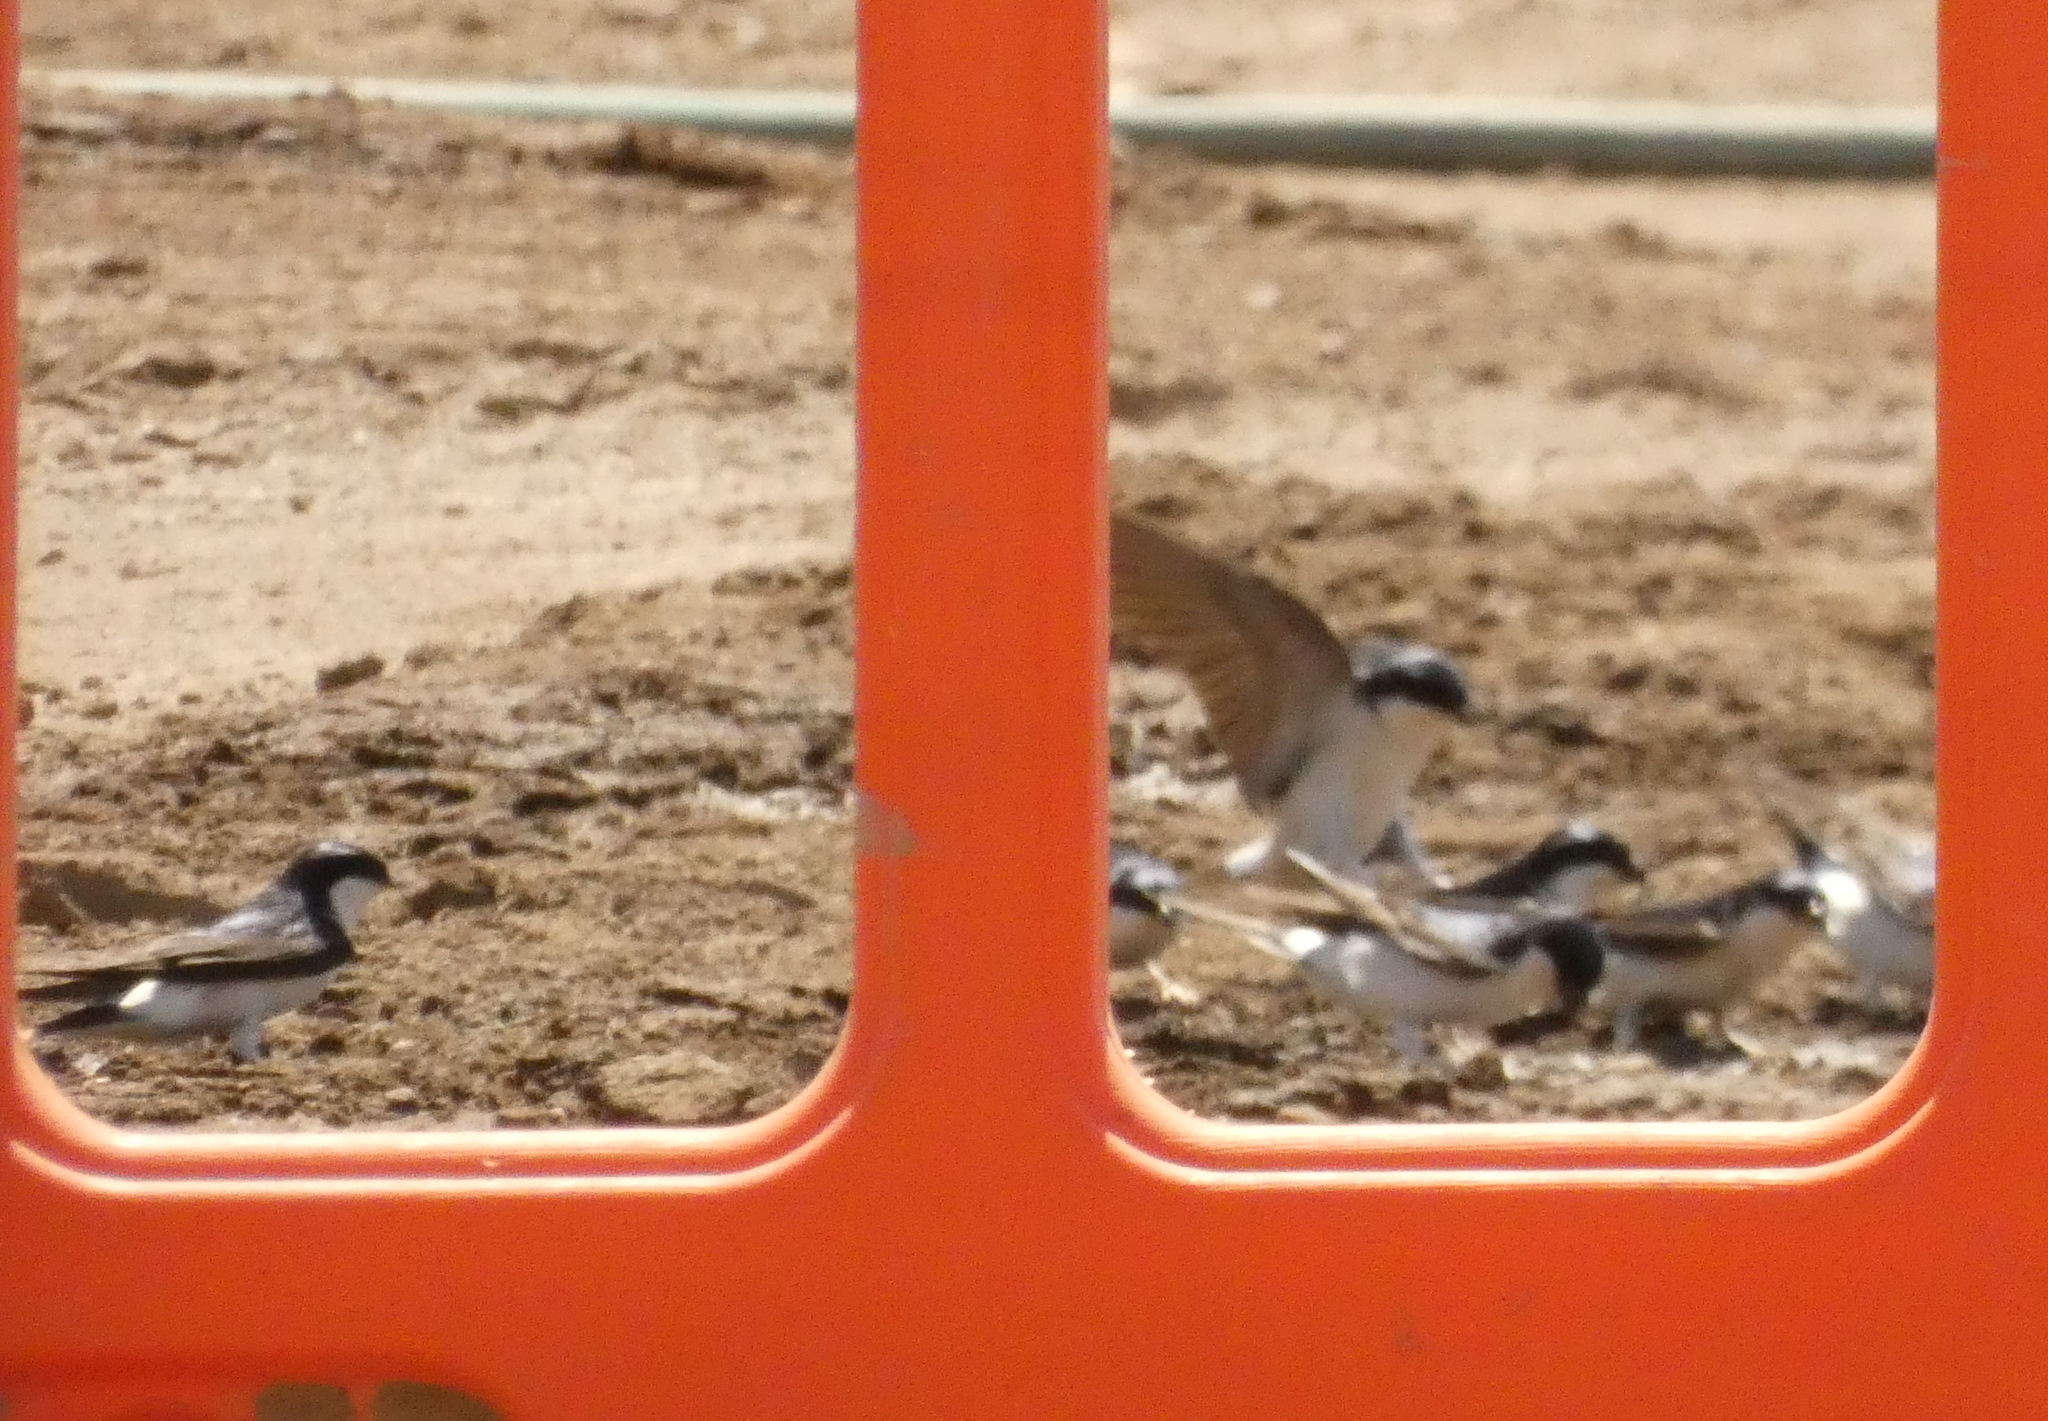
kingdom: Animalia
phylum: Chordata
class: Aves
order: Passeriformes
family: Hirundinidae
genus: Delichon
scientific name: Delichon urbicum
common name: Common house martin
